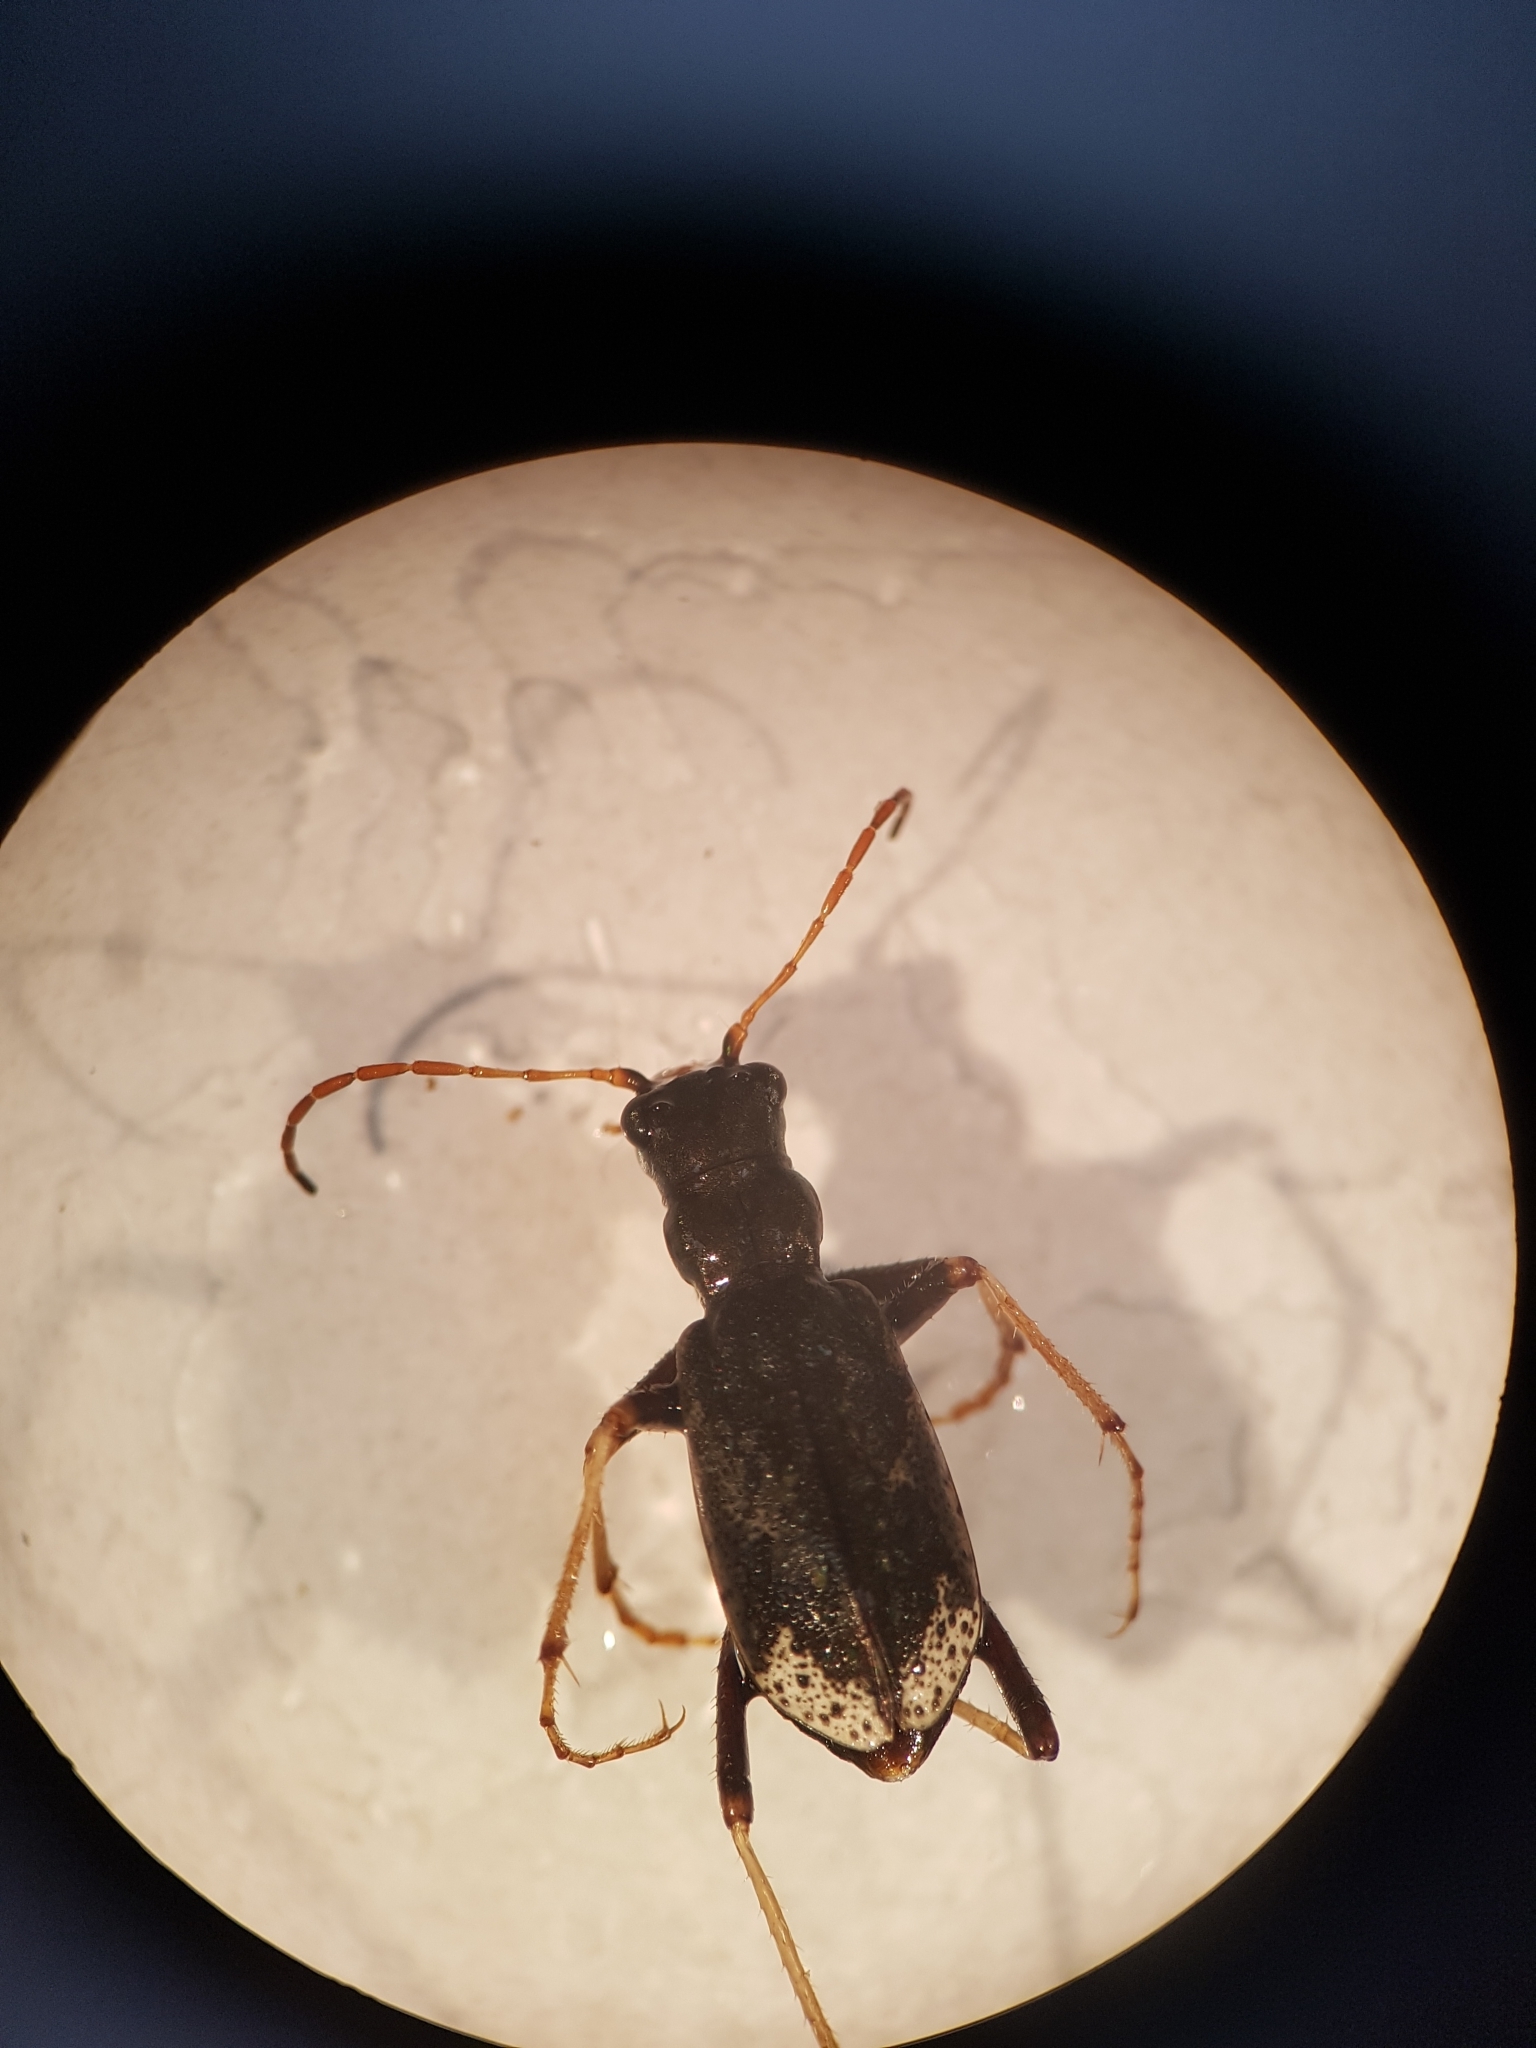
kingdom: Animalia
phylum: Arthropoda
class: Insecta
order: Coleoptera
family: Carabidae
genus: Neocicindela
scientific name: Neocicindela spilleri
